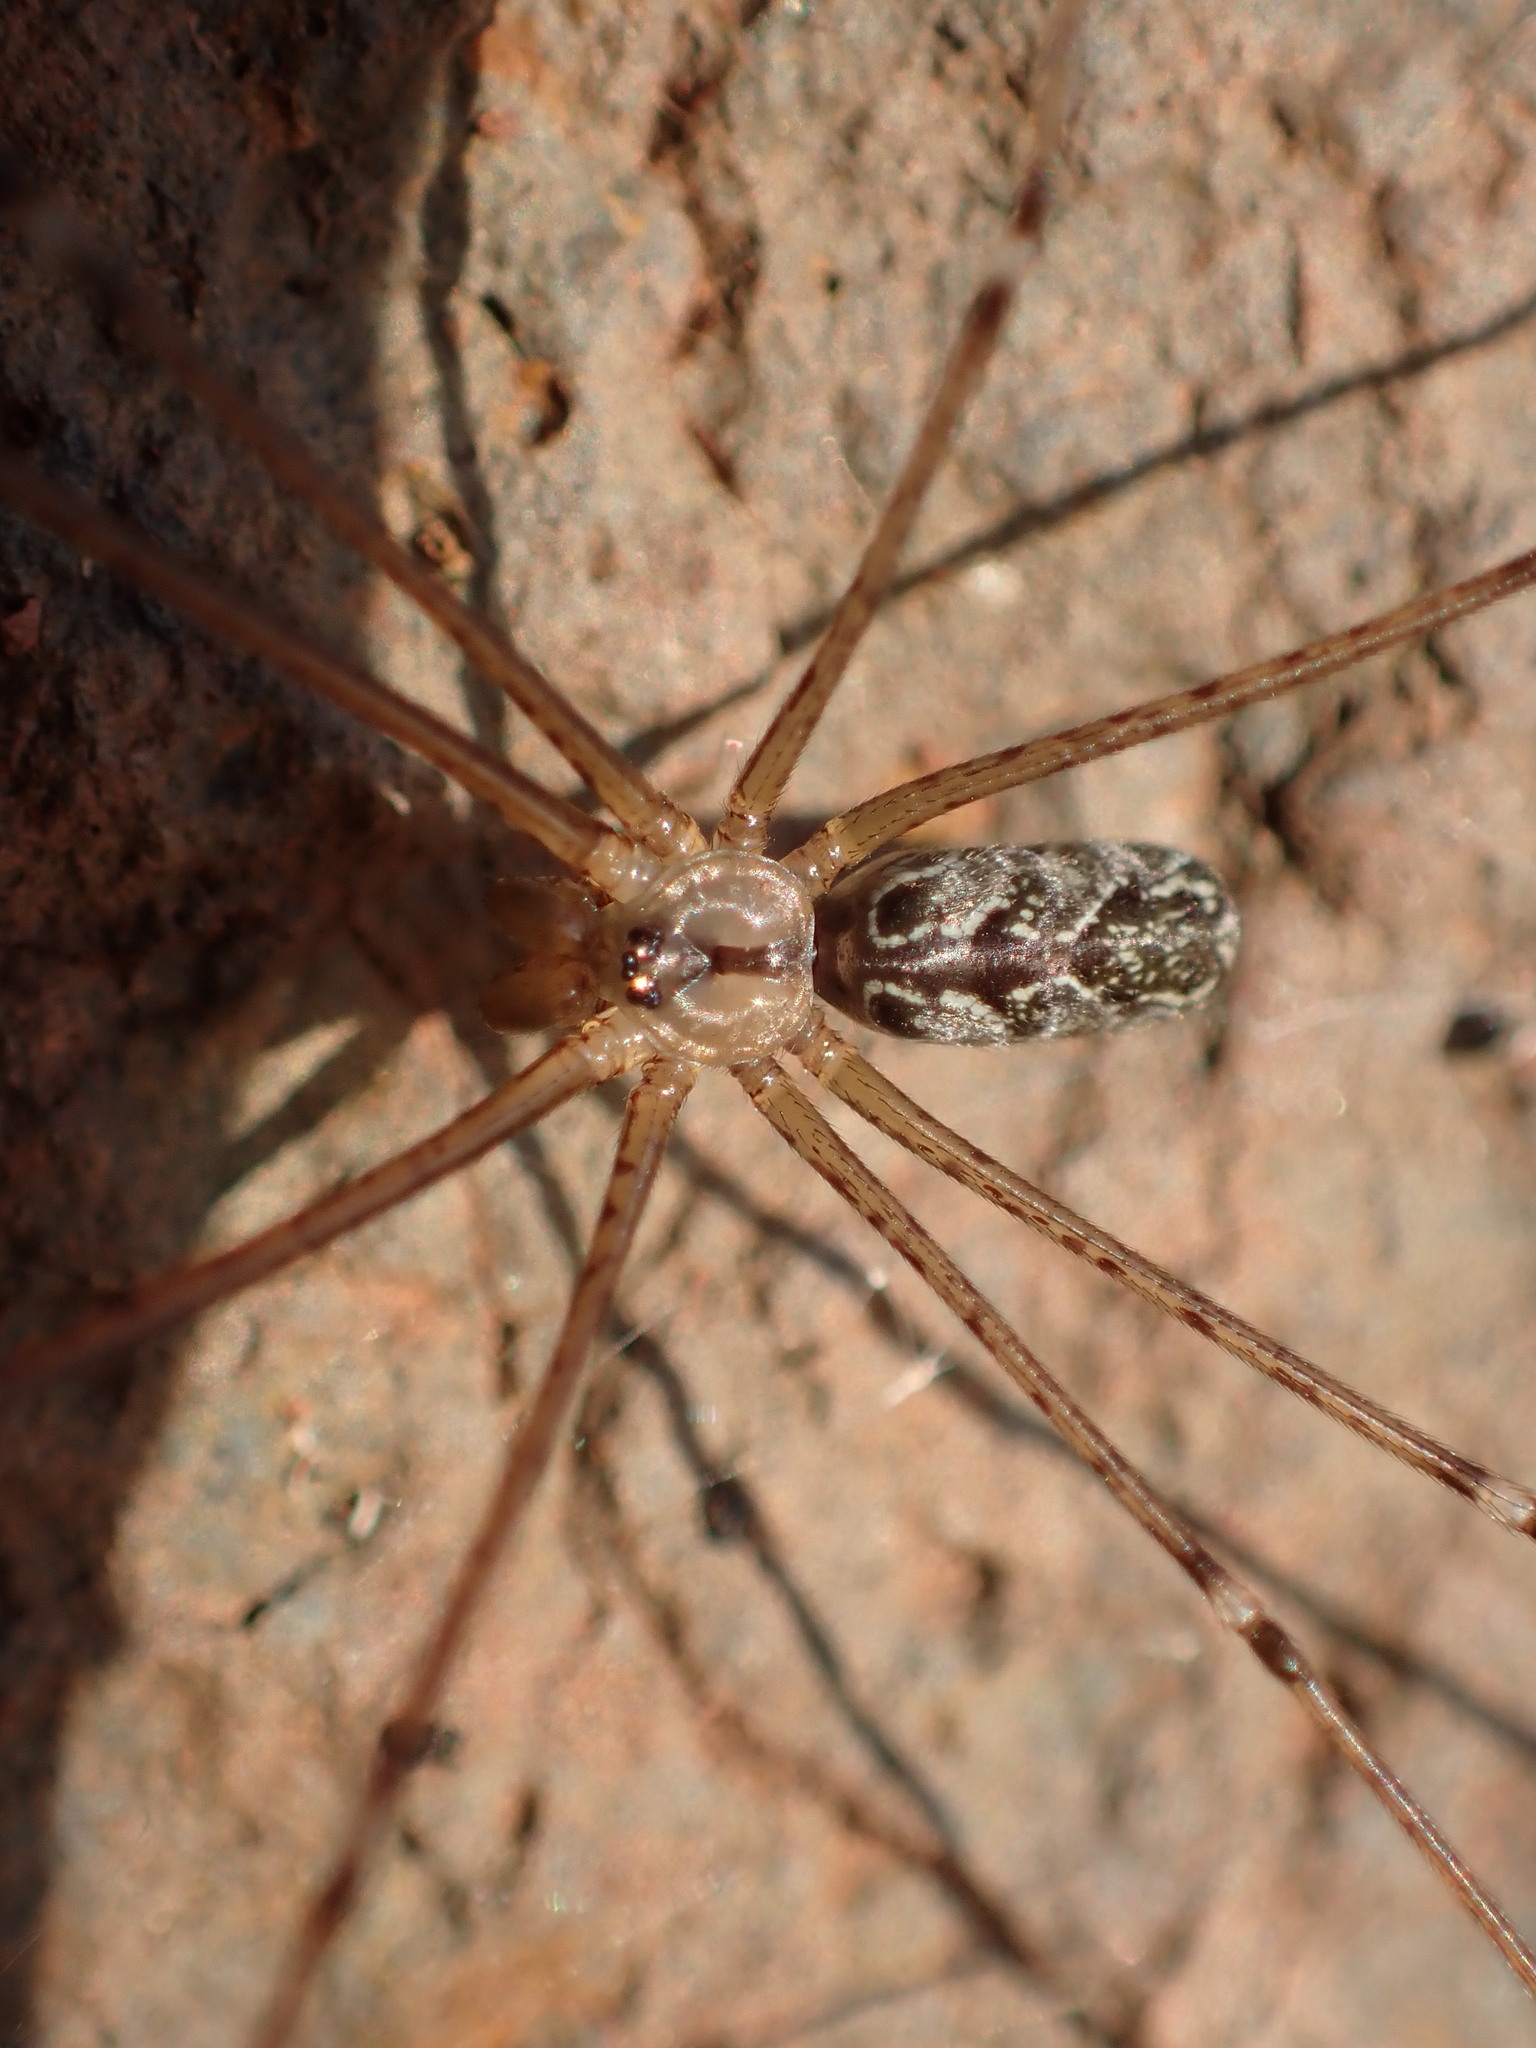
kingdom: Animalia
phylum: Arthropoda
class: Arachnida
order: Araneae
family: Pholcidae
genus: Holocnemus
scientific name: Holocnemus pluchei
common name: Marbled cellar spider
